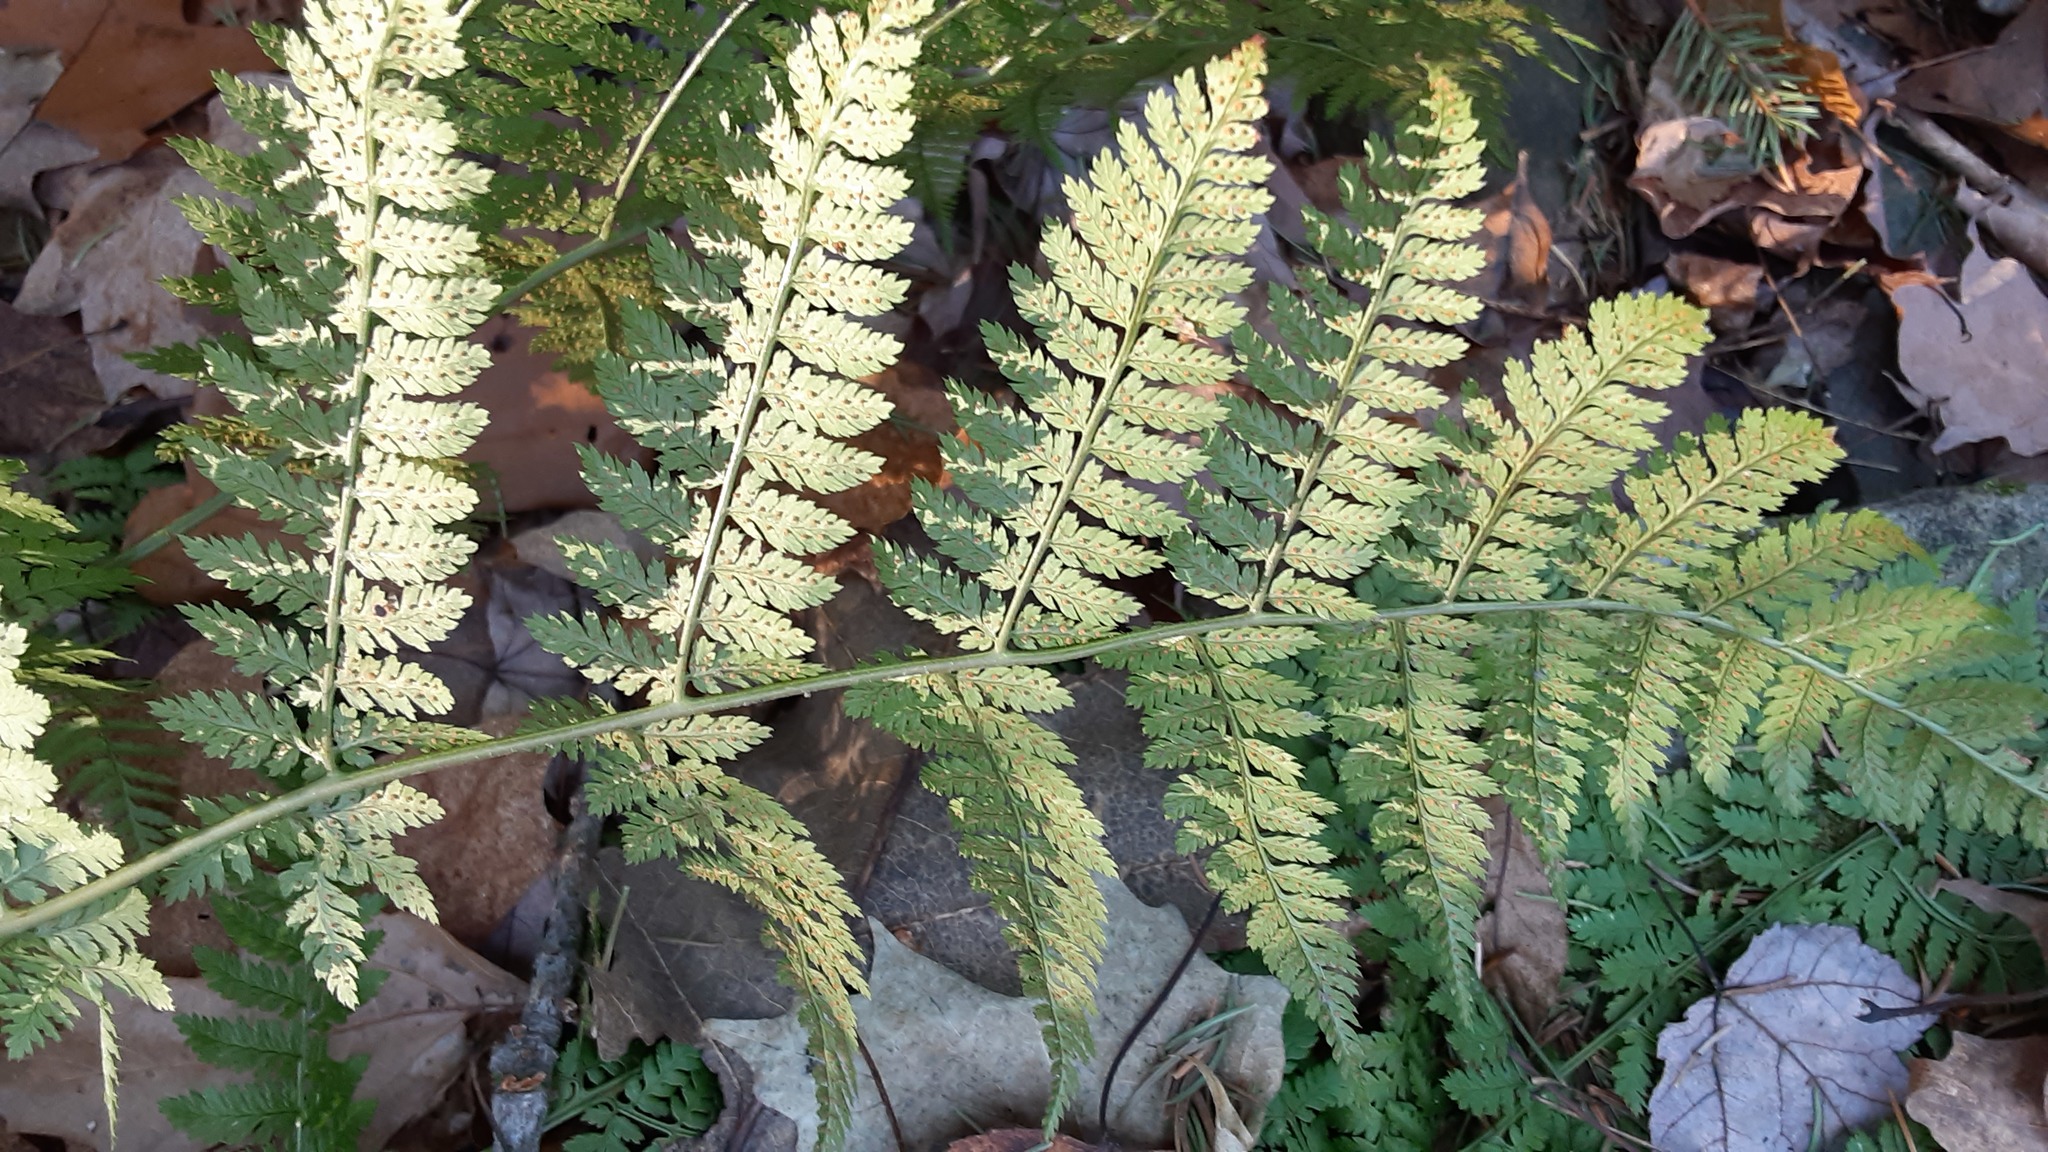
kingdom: Plantae
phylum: Tracheophyta
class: Polypodiopsida
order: Polypodiales
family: Dryopteridaceae
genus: Dryopteris
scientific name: Dryopteris intermedia
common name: Evergreen wood fern
